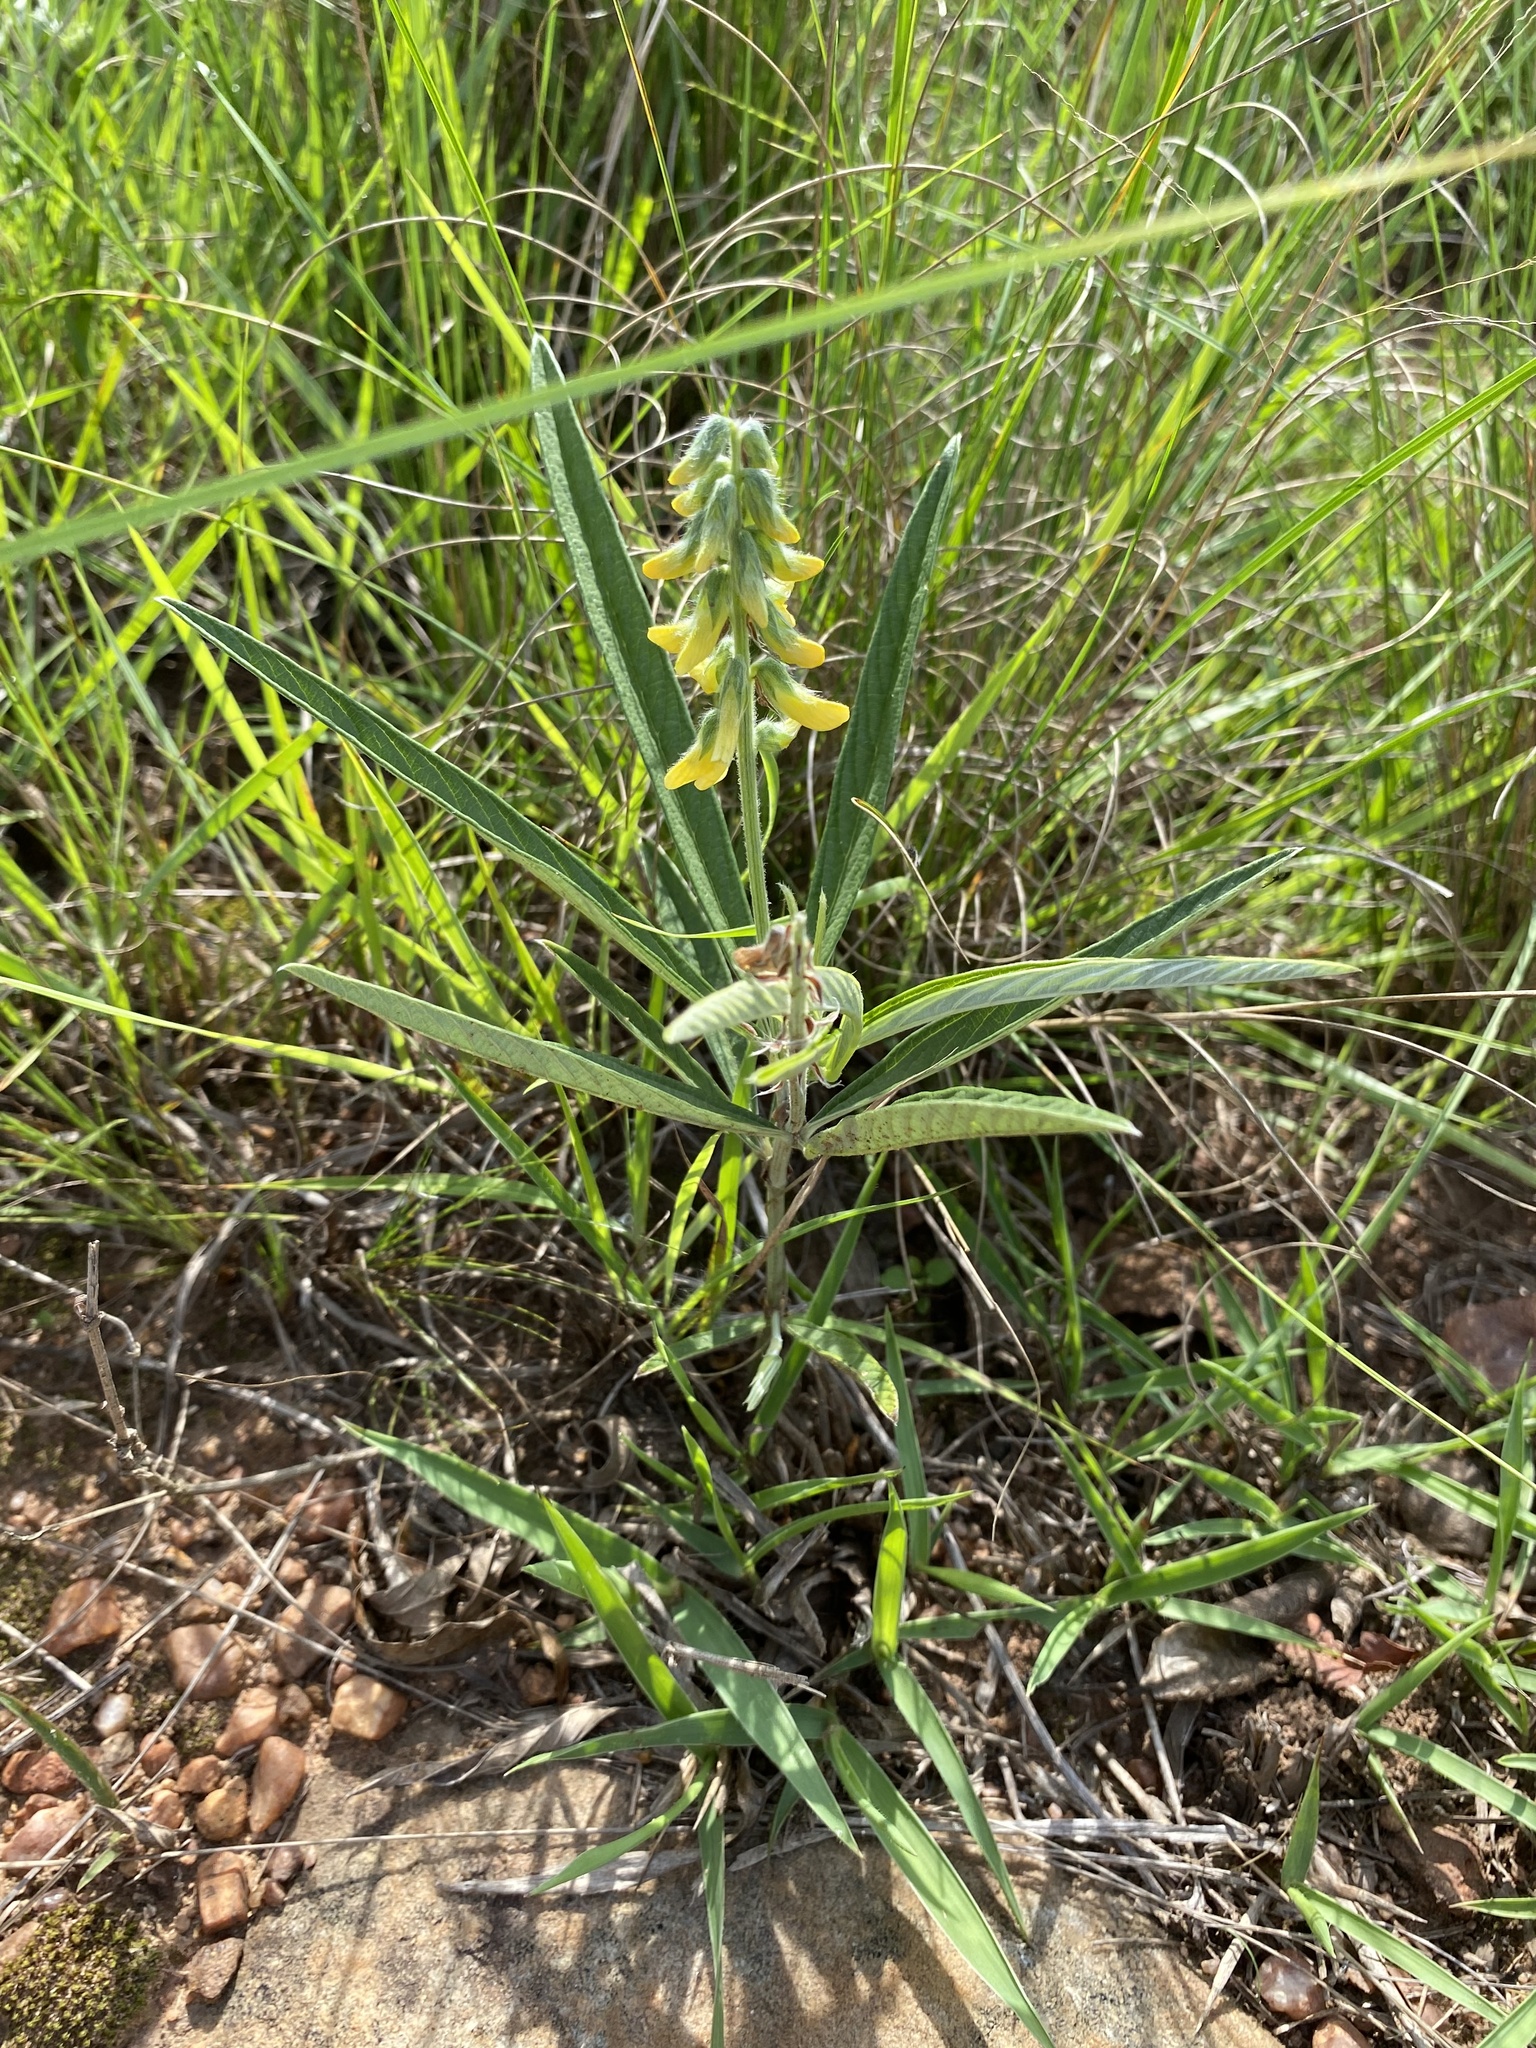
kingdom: Plantae
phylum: Tracheophyta
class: Magnoliopsida
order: Fabales
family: Fabaceae
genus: Eriosema
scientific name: Eriosema salignum
